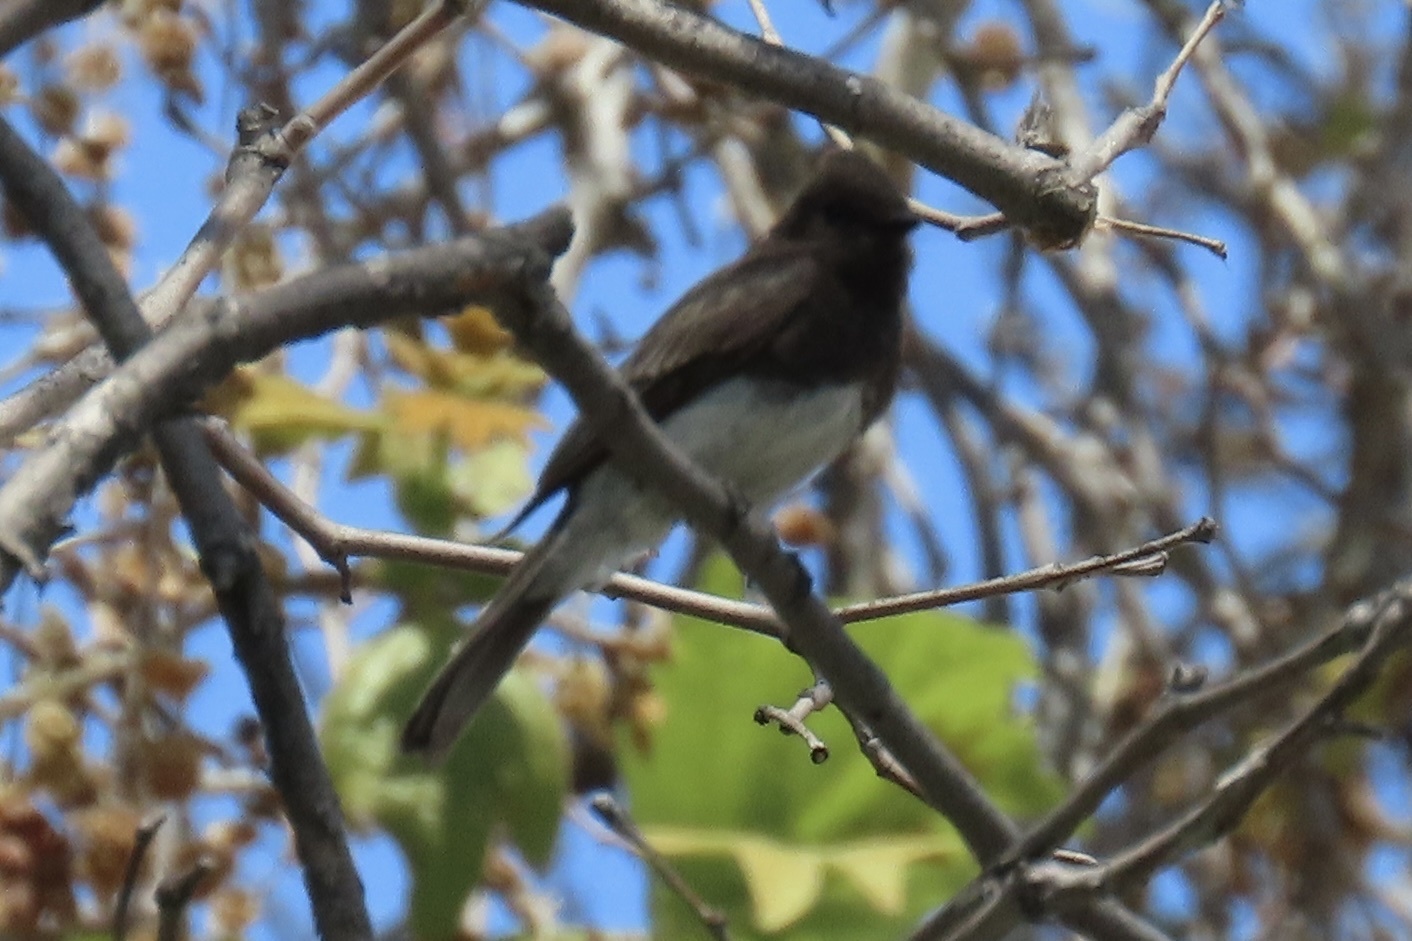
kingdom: Animalia
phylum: Chordata
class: Aves
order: Passeriformes
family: Tyrannidae
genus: Sayornis
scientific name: Sayornis nigricans
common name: Black phoebe
